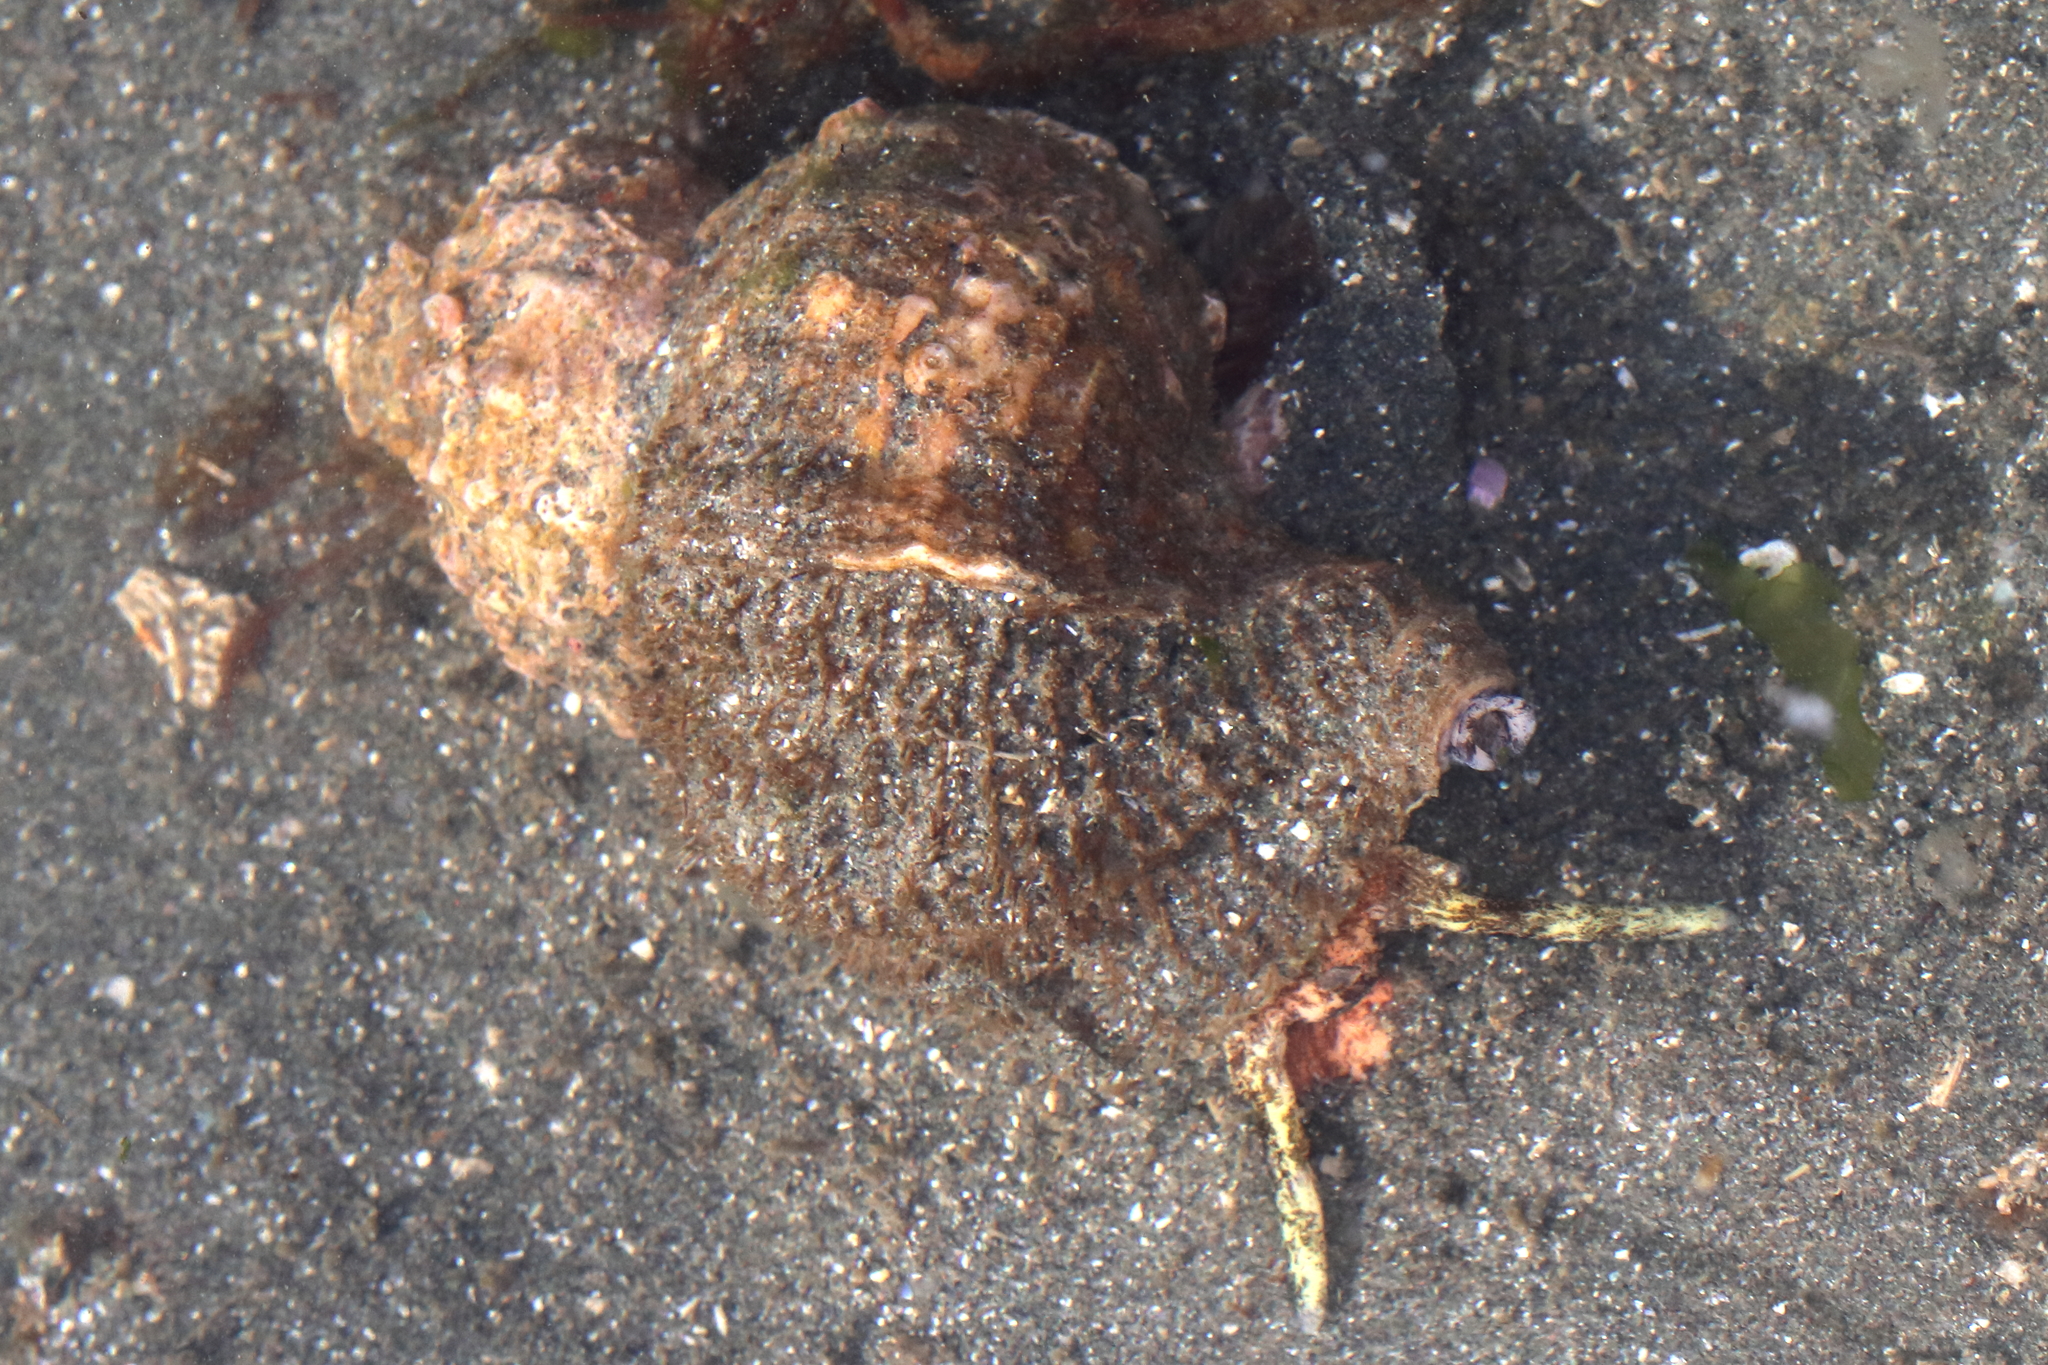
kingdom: Animalia
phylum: Mollusca
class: Gastropoda
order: Littorinimorpha
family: Cymatiidae
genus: Fusitriton
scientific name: Fusitriton oregonensis
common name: Oregon hairy triton
